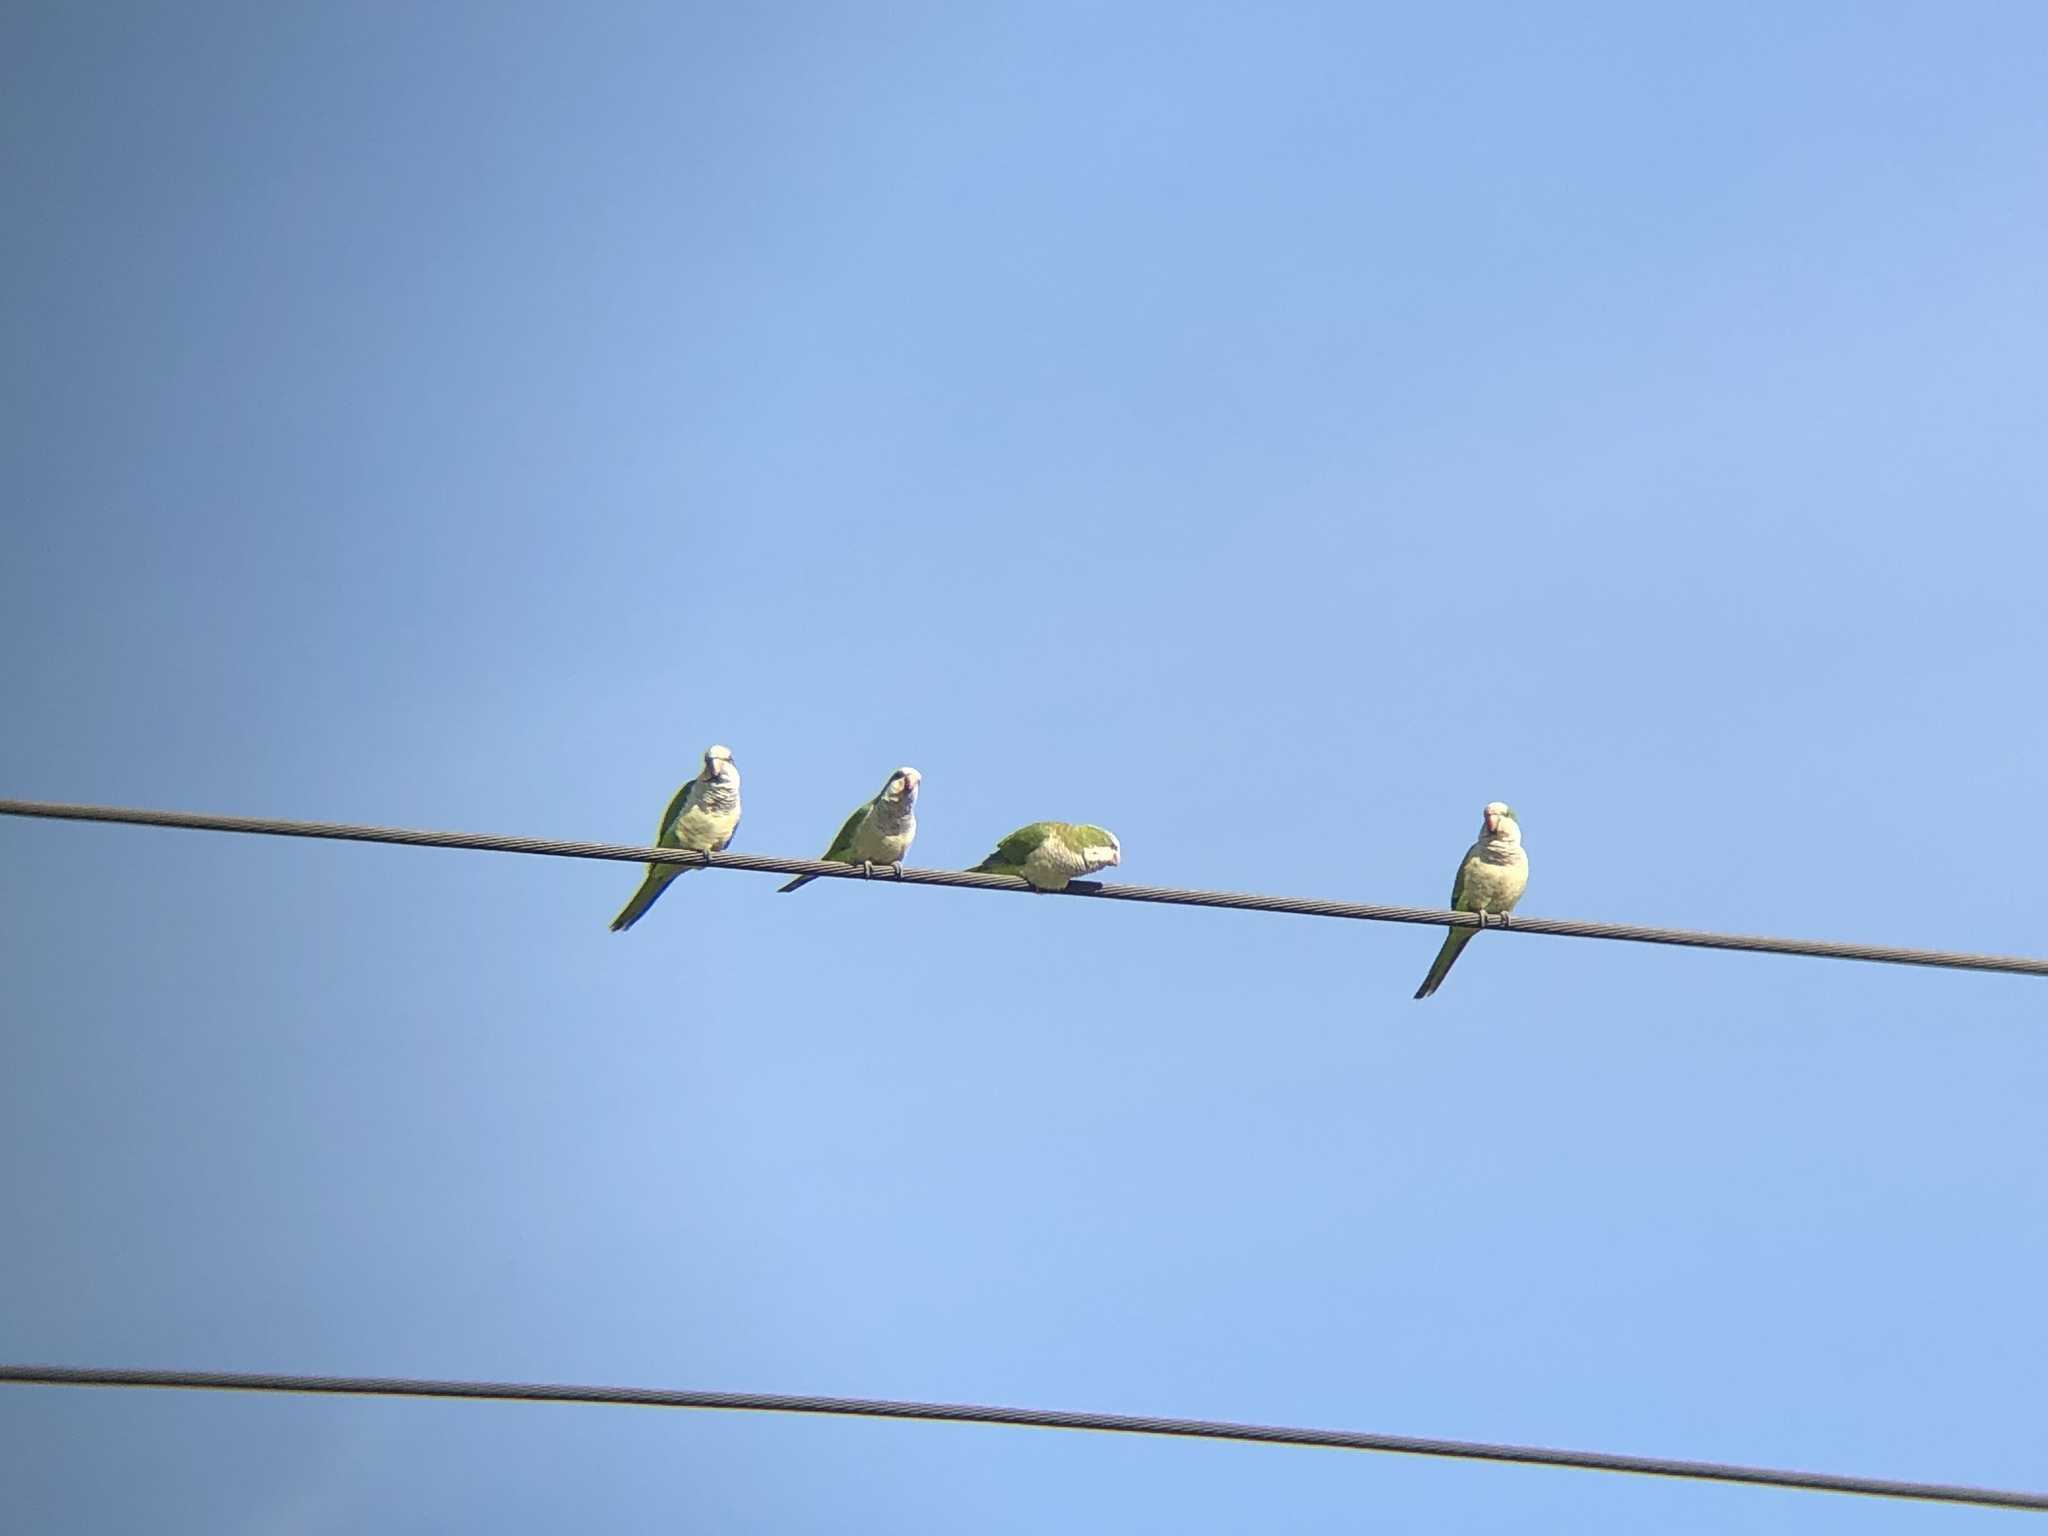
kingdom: Animalia
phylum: Chordata
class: Aves
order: Psittaciformes
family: Psittacidae
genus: Myiopsitta
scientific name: Myiopsitta monachus
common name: Monk parakeet
